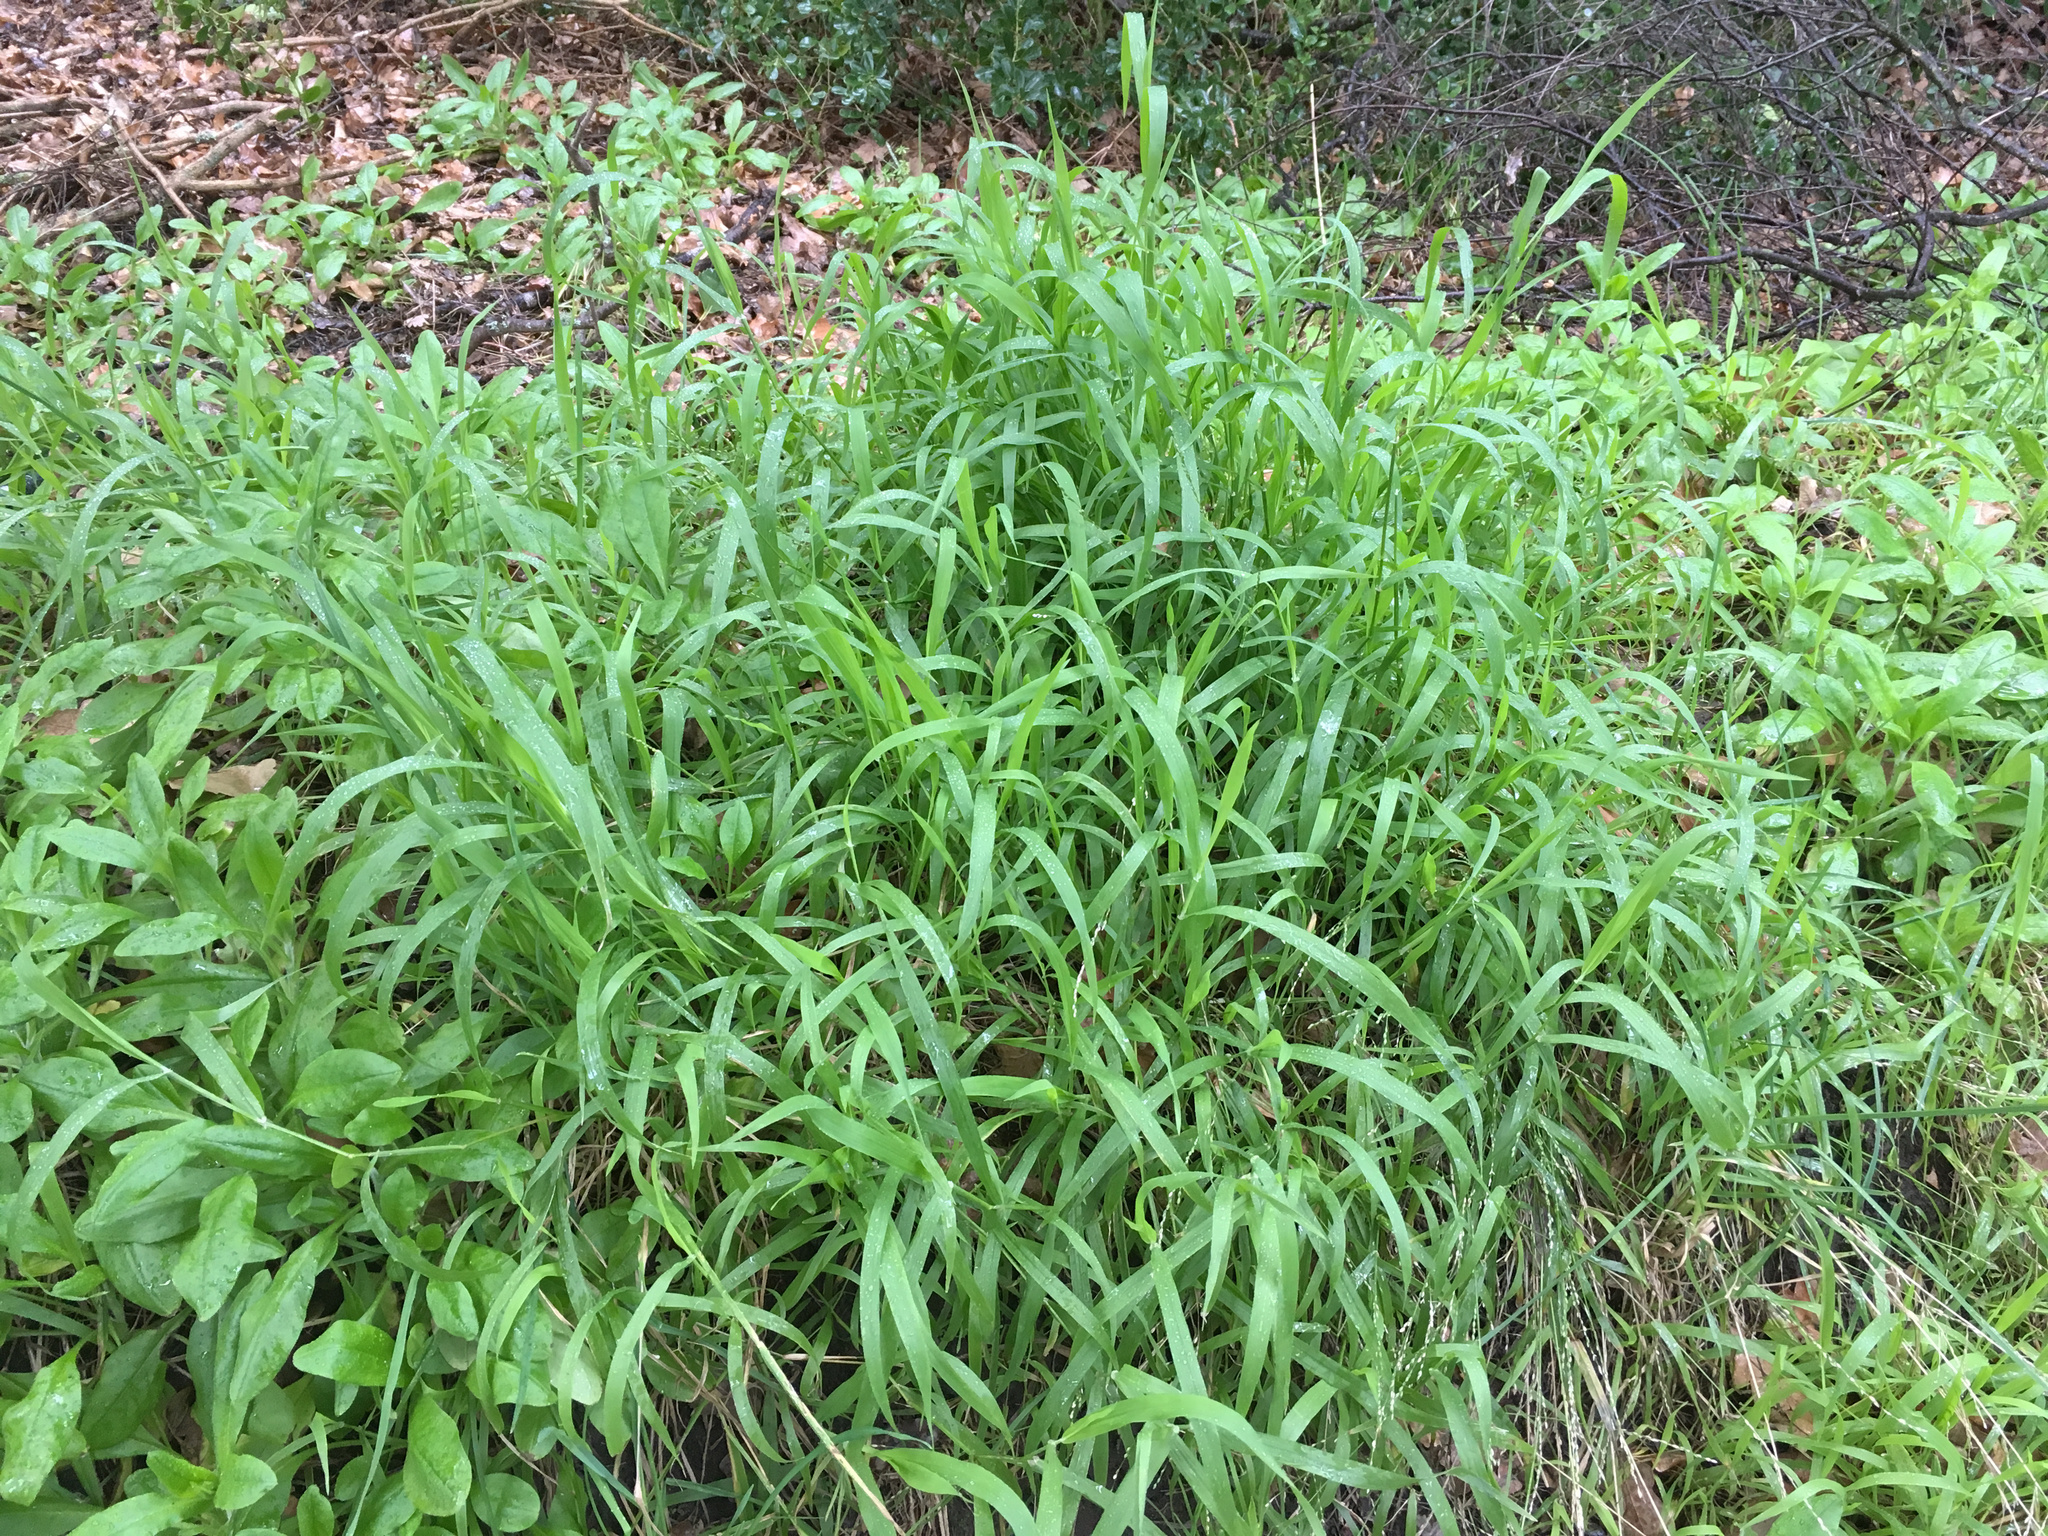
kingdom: Plantae
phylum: Tracheophyta
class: Liliopsida
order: Poales
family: Poaceae
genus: Ehrharta
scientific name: Ehrharta erecta
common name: Panic veldtgrass
